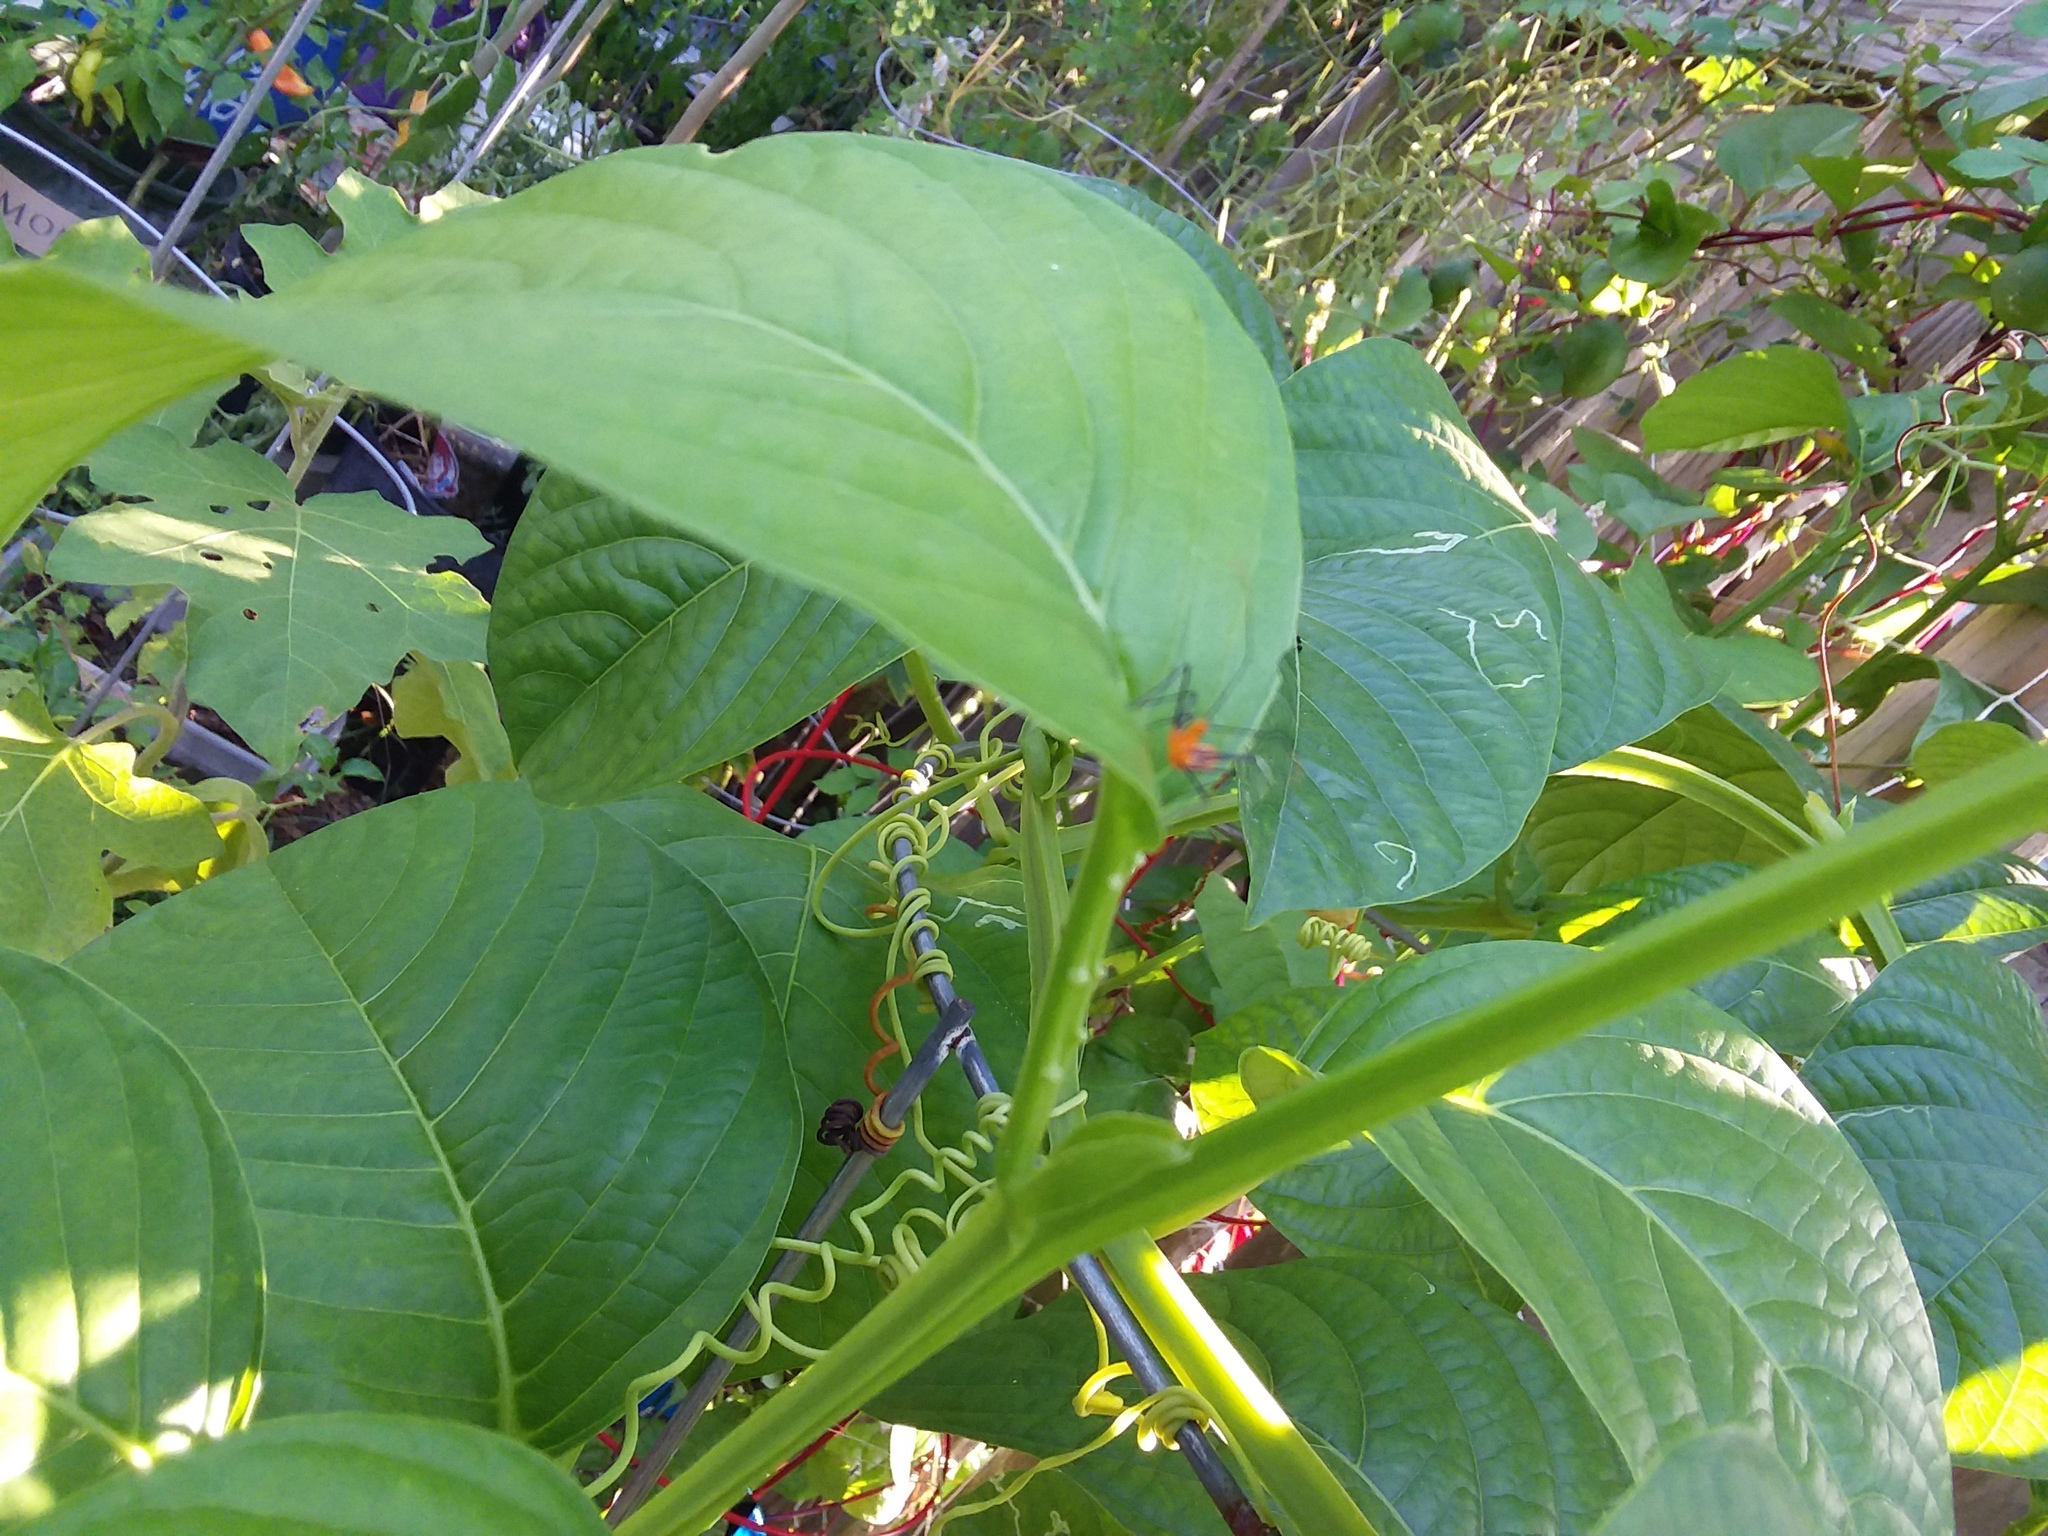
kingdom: Animalia
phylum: Arthropoda
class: Insecta
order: Hemiptera
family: Reduviidae
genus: Zelus
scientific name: Zelus longipes
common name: Milkweed assassin bug
